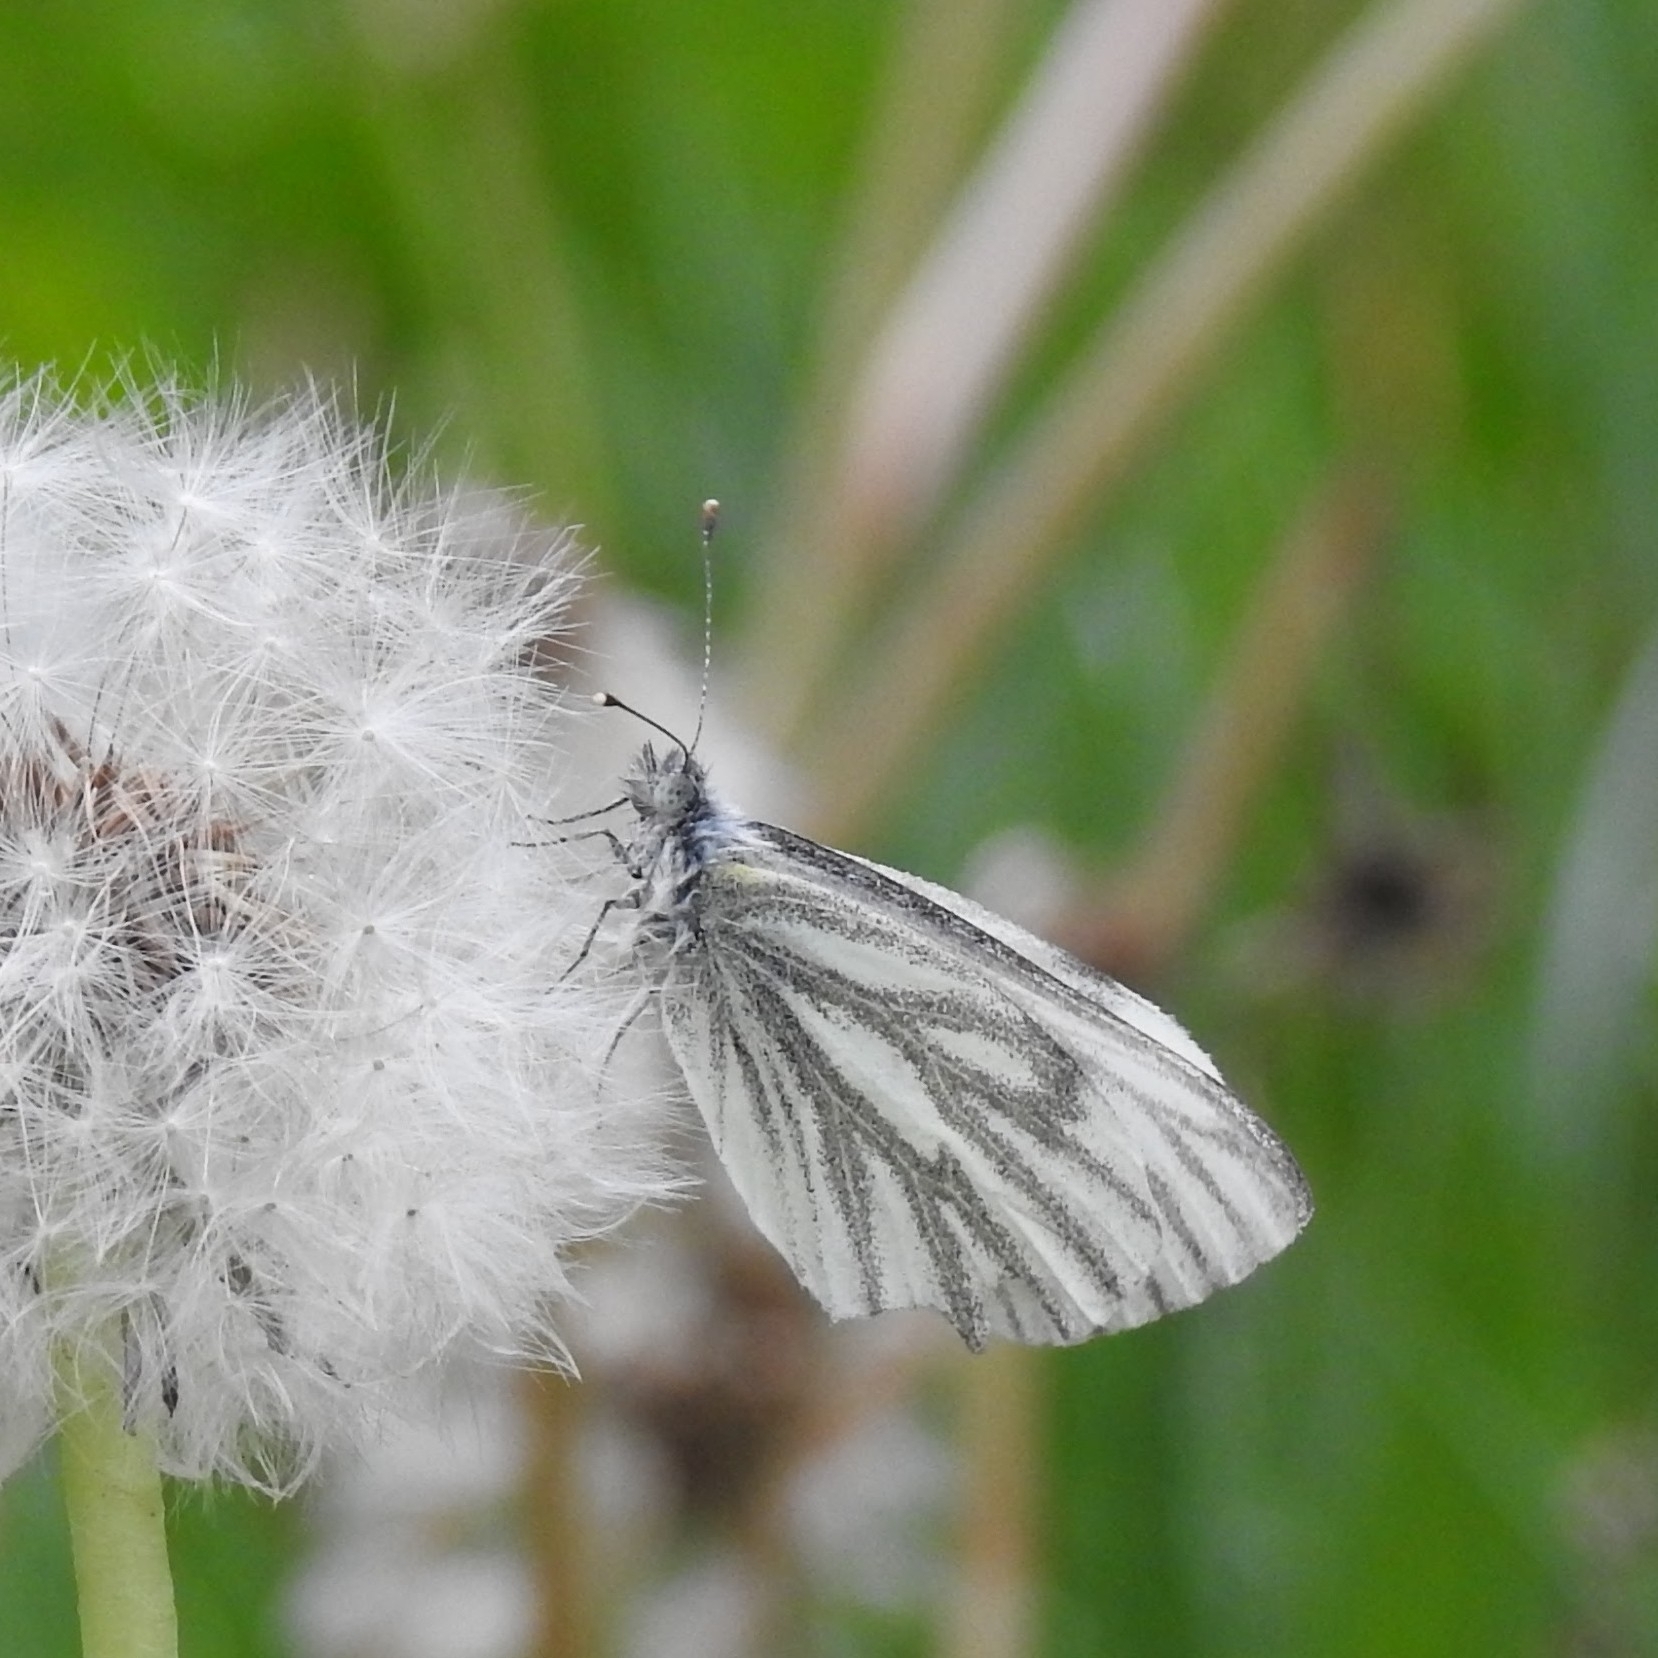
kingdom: Animalia
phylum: Arthropoda
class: Insecta
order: Lepidoptera
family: Pieridae
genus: Pieris
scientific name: Pieris napi
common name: Green-veined white
